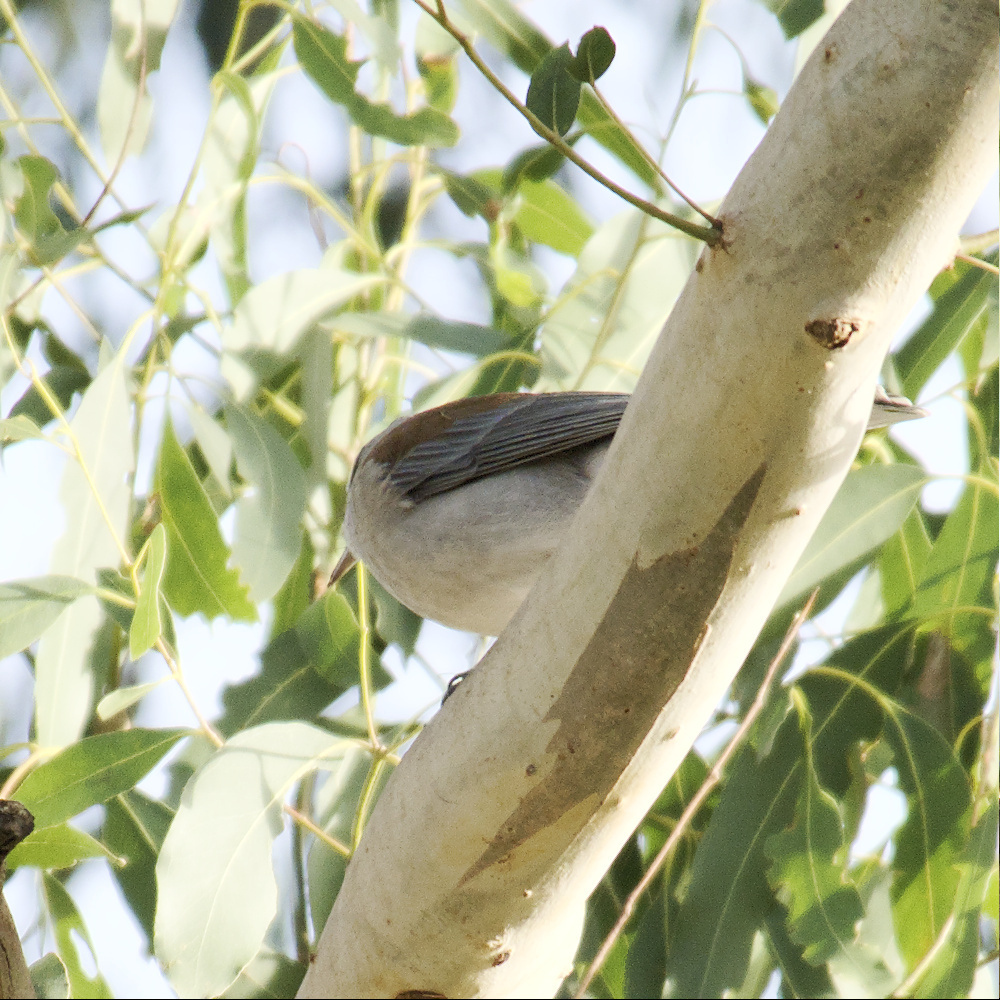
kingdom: Animalia
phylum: Chordata
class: Aves
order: Passeriformes
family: Pachycephalidae
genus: Colluricincla
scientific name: Colluricincla harmonica
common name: Grey shrikethrush
